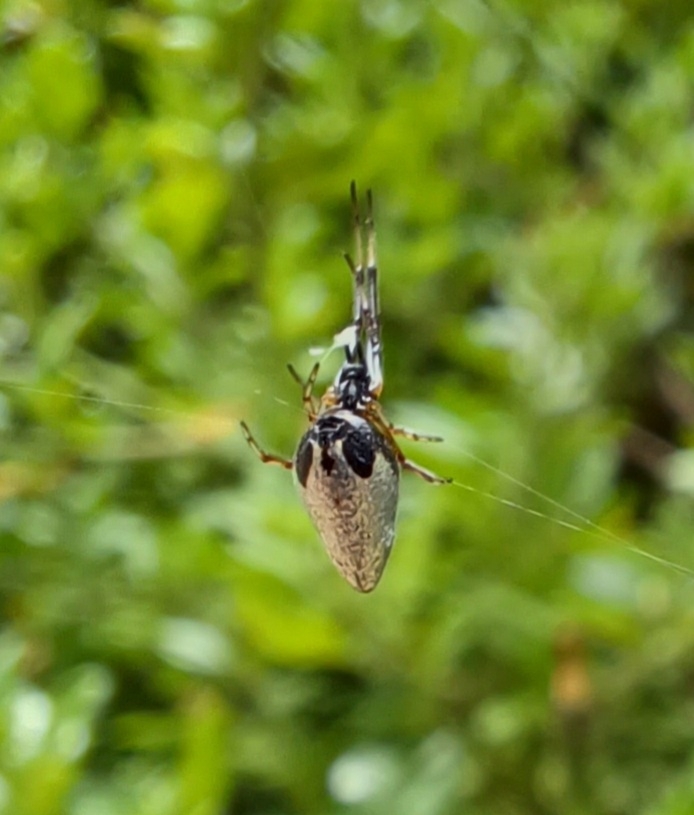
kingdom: Animalia
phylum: Arthropoda
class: Arachnida
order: Araneae
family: Theridiidae
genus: Argyrodes
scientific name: Argyrodes antipodianus
